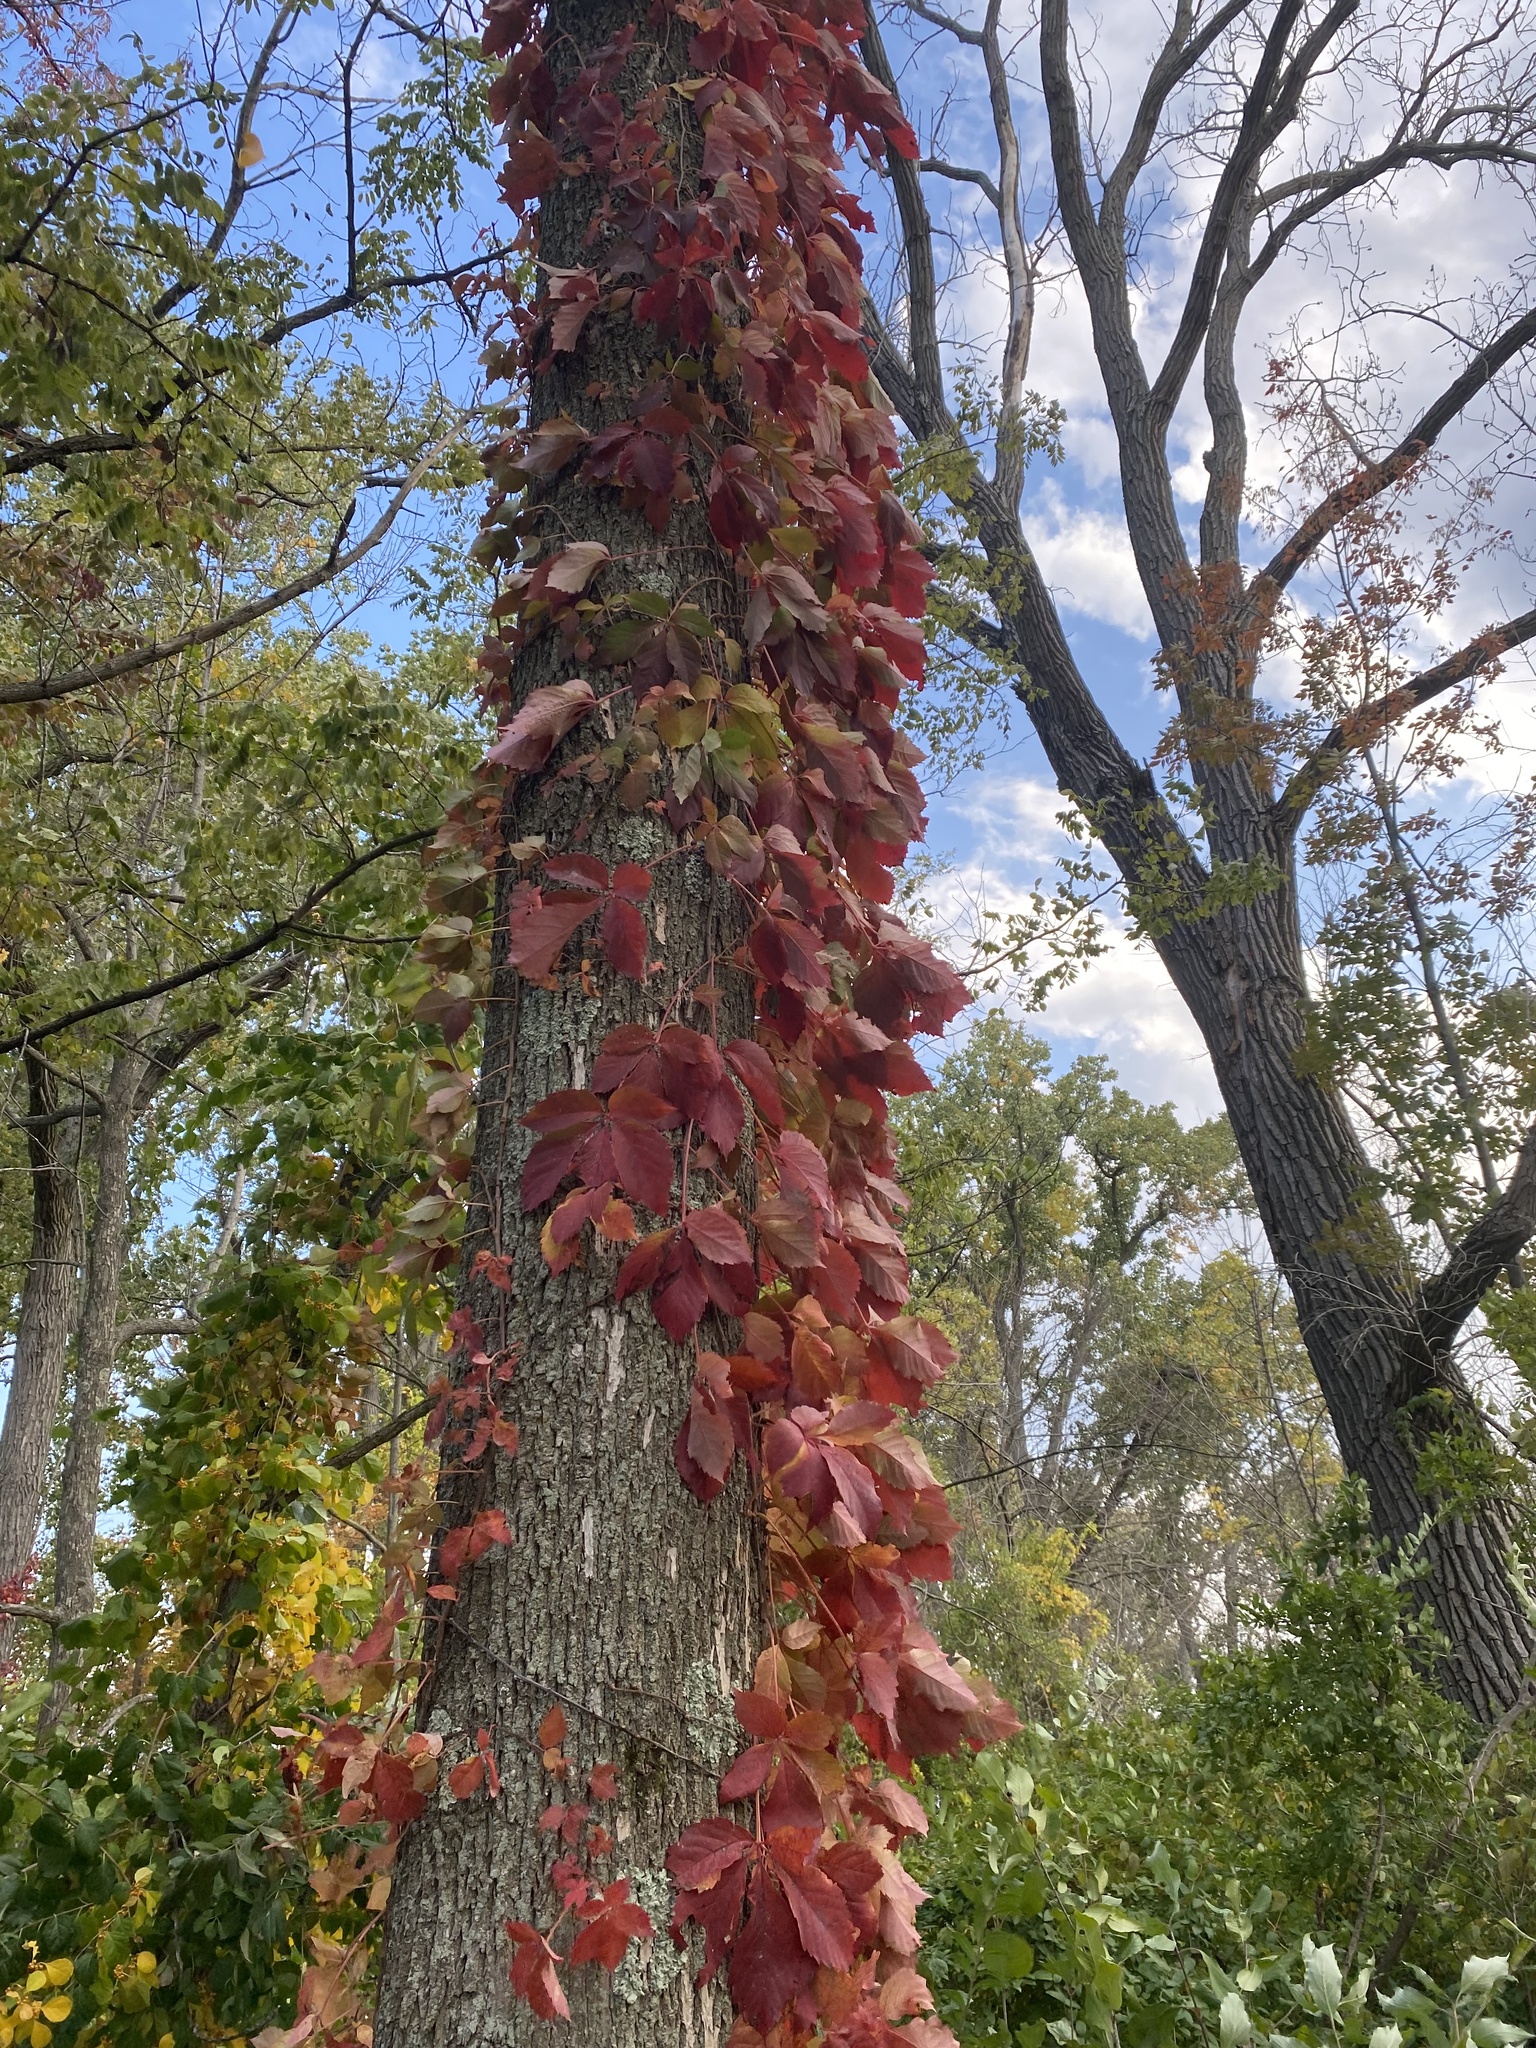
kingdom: Plantae
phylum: Tracheophyta
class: Magnoliopsida
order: Vitales
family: Vitaceae
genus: Parthenocissus
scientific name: Parthenocissus quinquefolia
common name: Virginia-creeper
